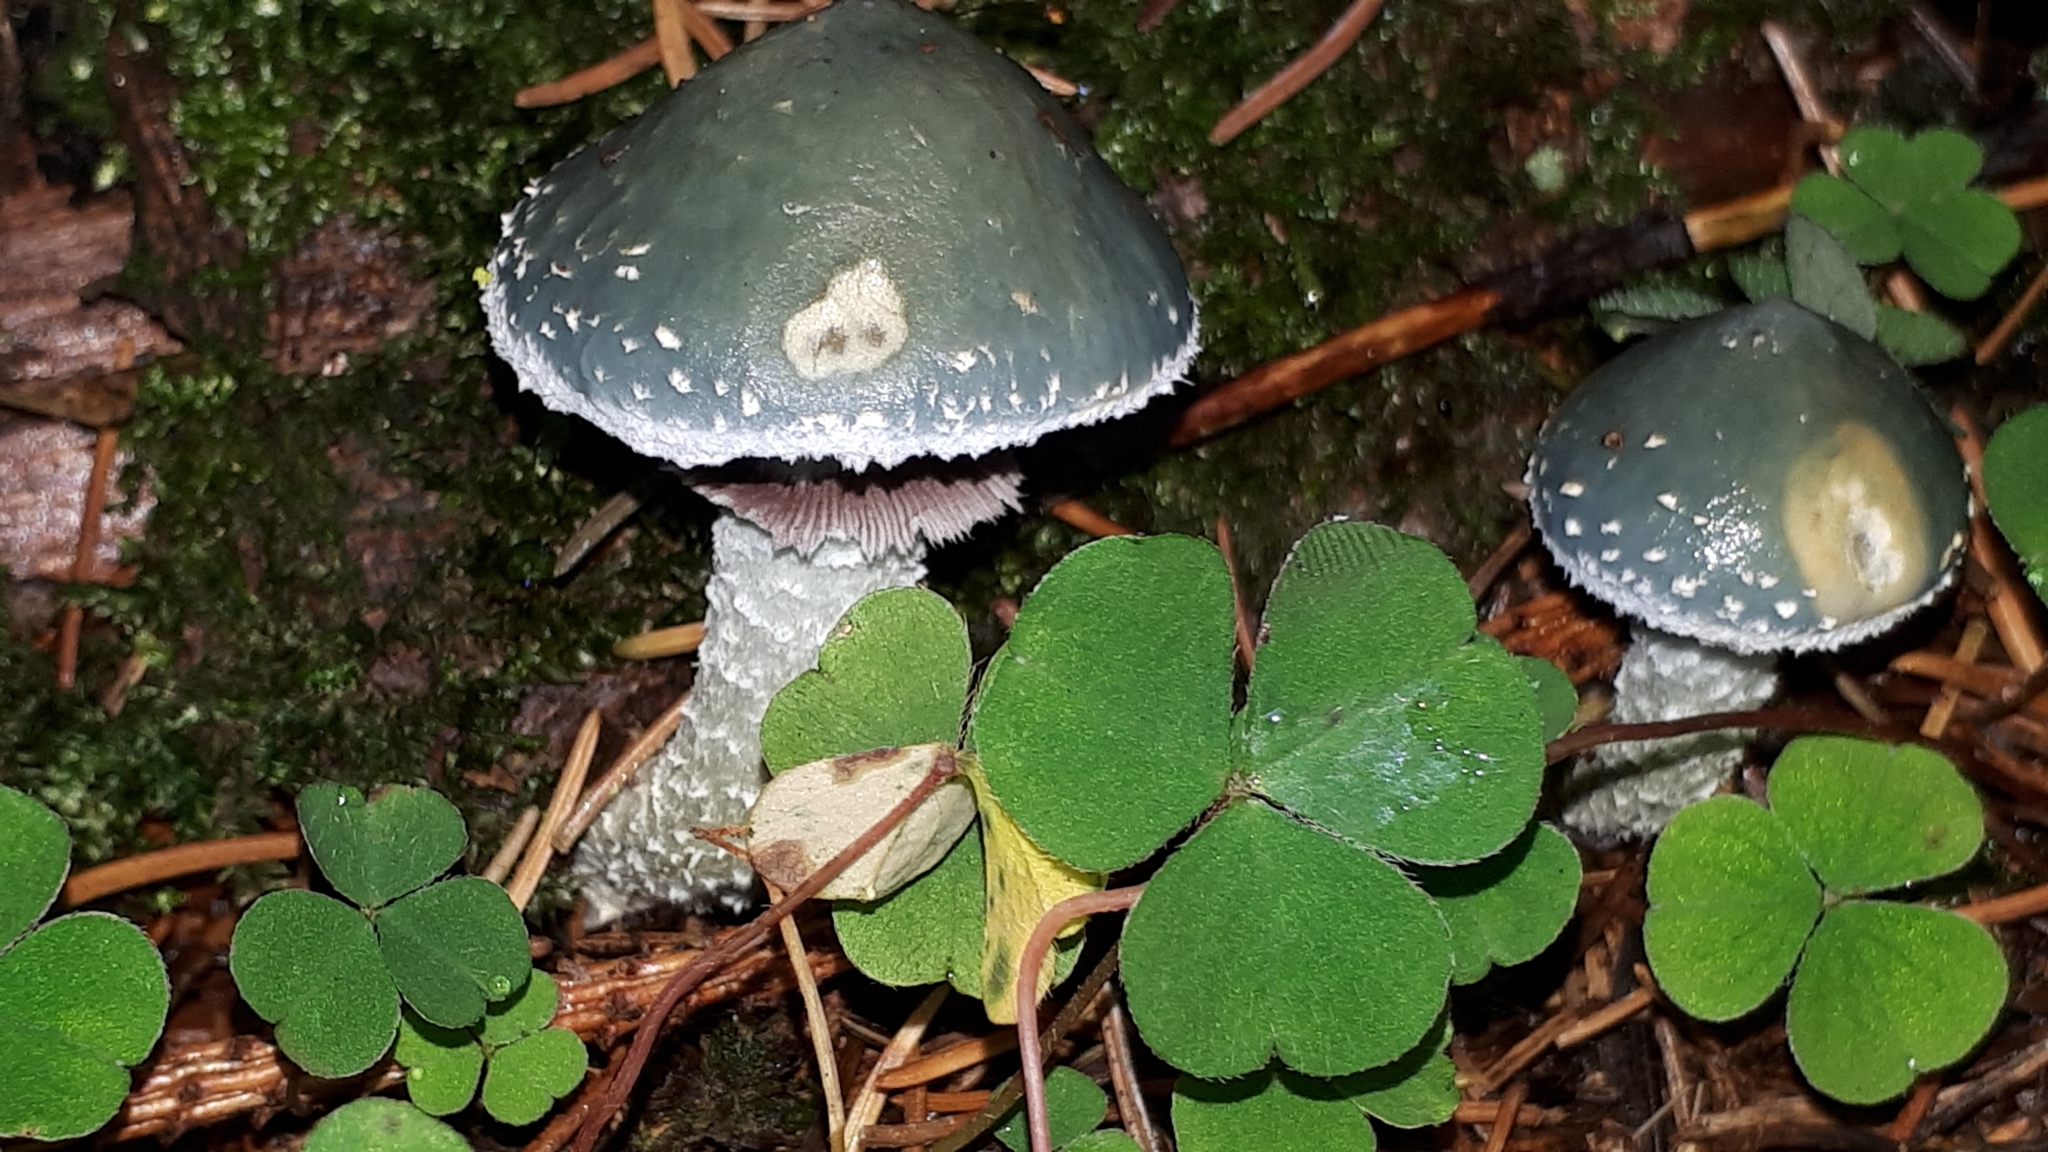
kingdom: Fungi
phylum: Basidiomycota
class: Agaricomycetes
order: Agaricales
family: Strophariaceae
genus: Stropharia
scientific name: Stropharia aeruginosa
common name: Verdigris roundhead
